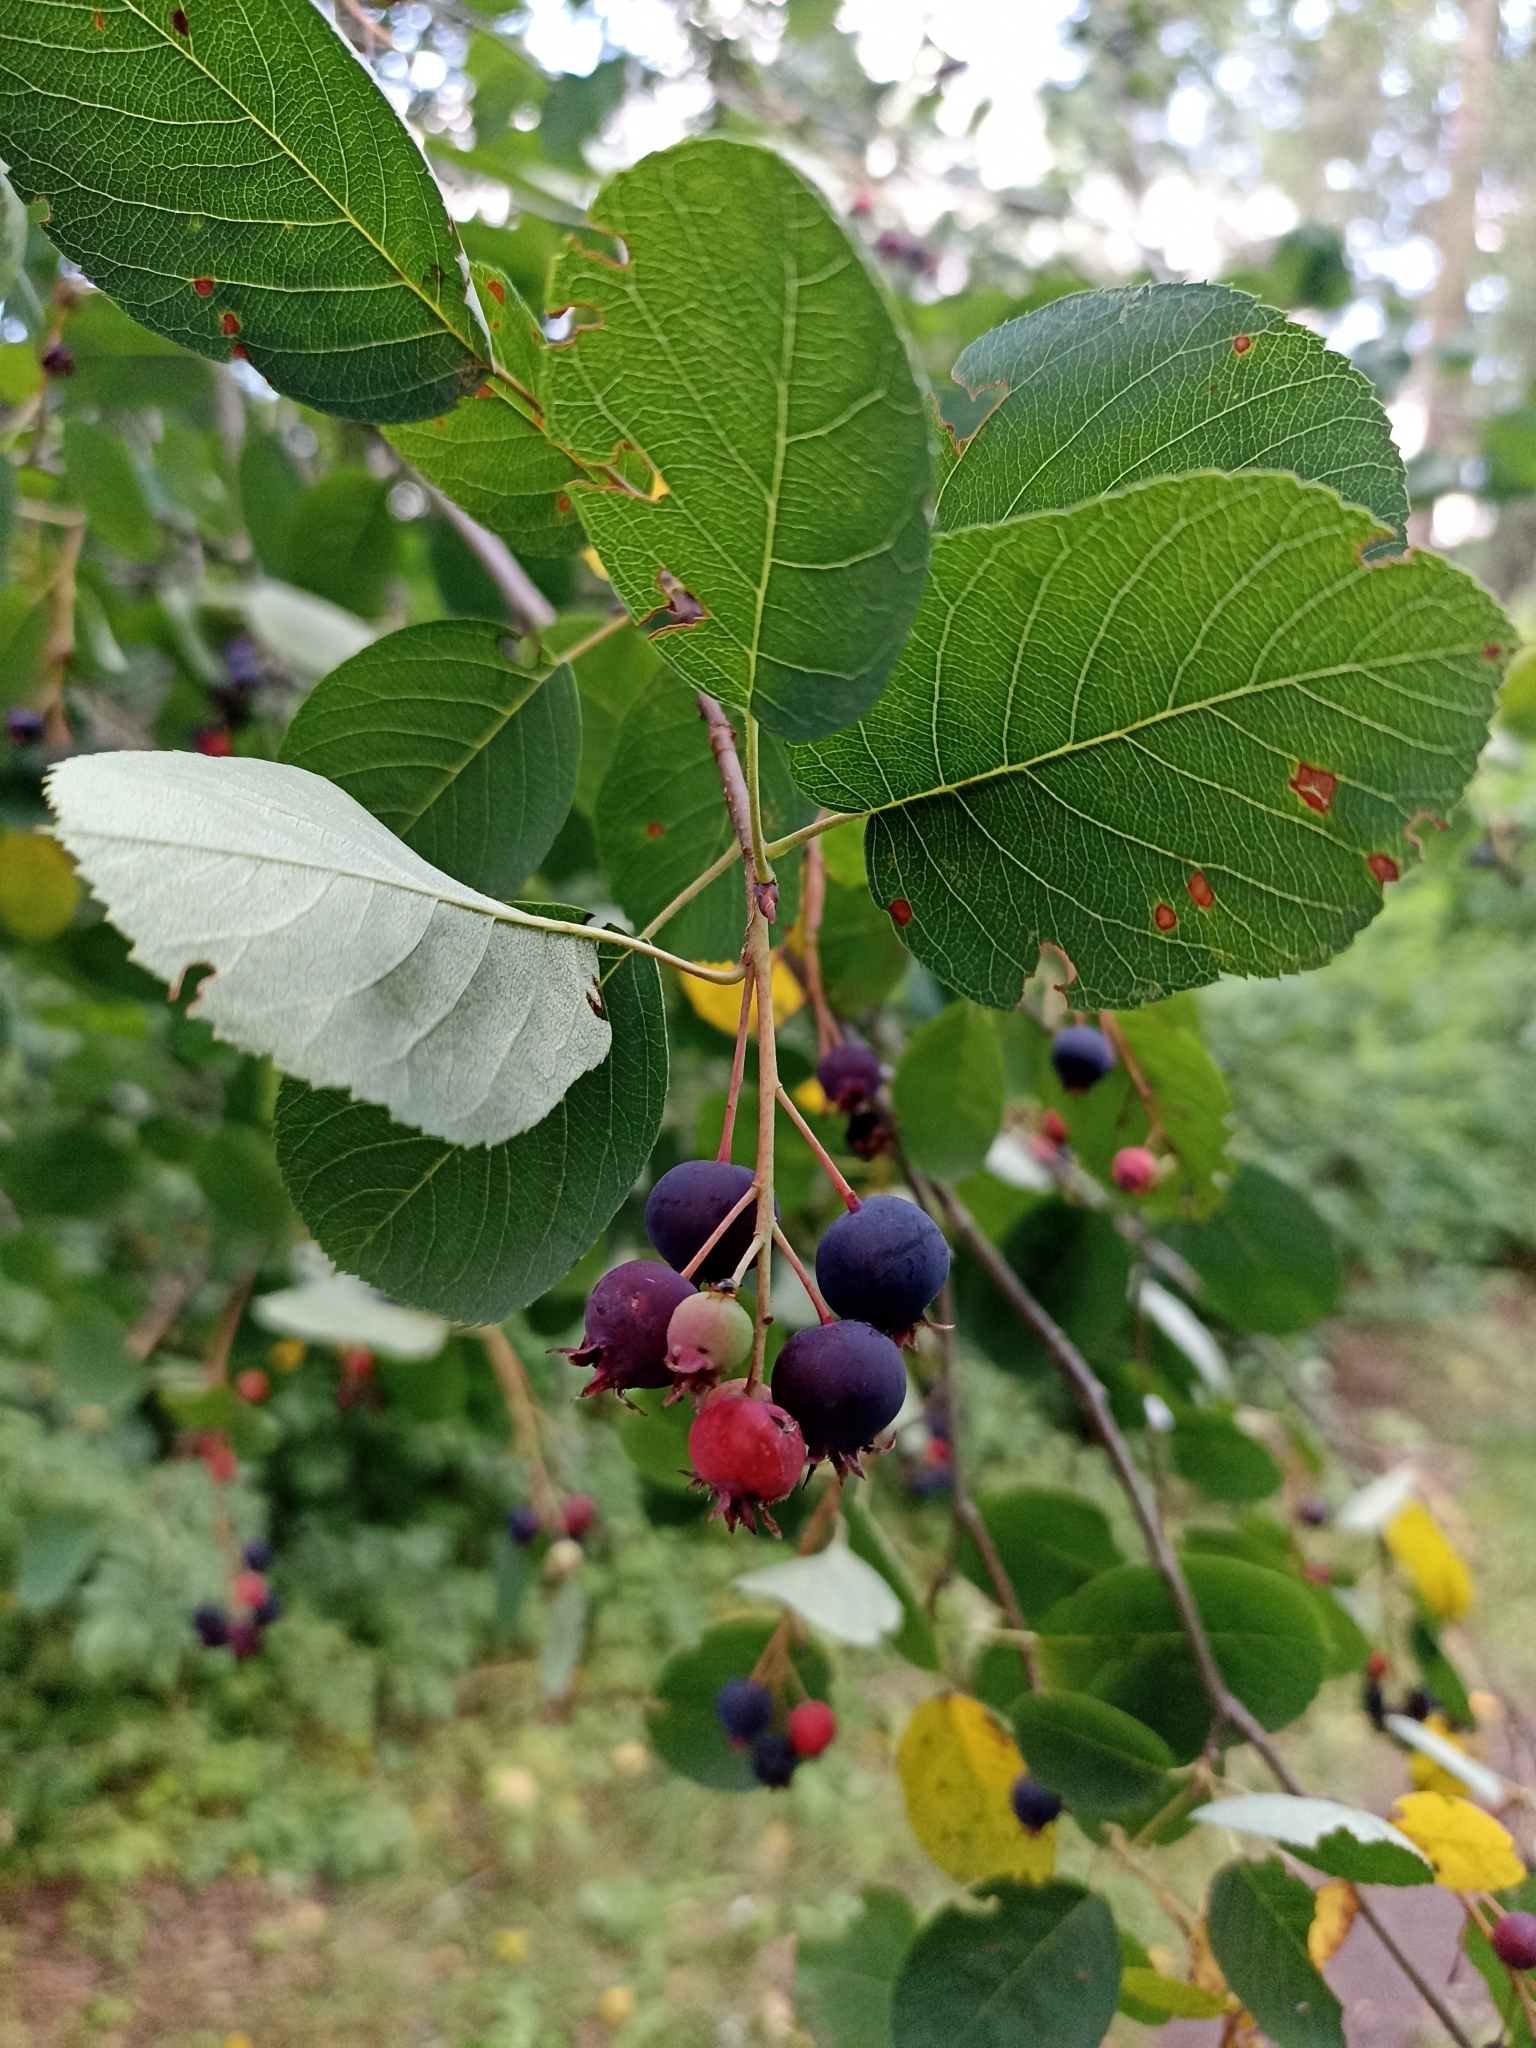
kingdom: Plantae
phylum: Tracheophyta
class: Magnoliopsida
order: Rosales
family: Rosaceae
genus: Amelanchier
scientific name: Amelanchier
